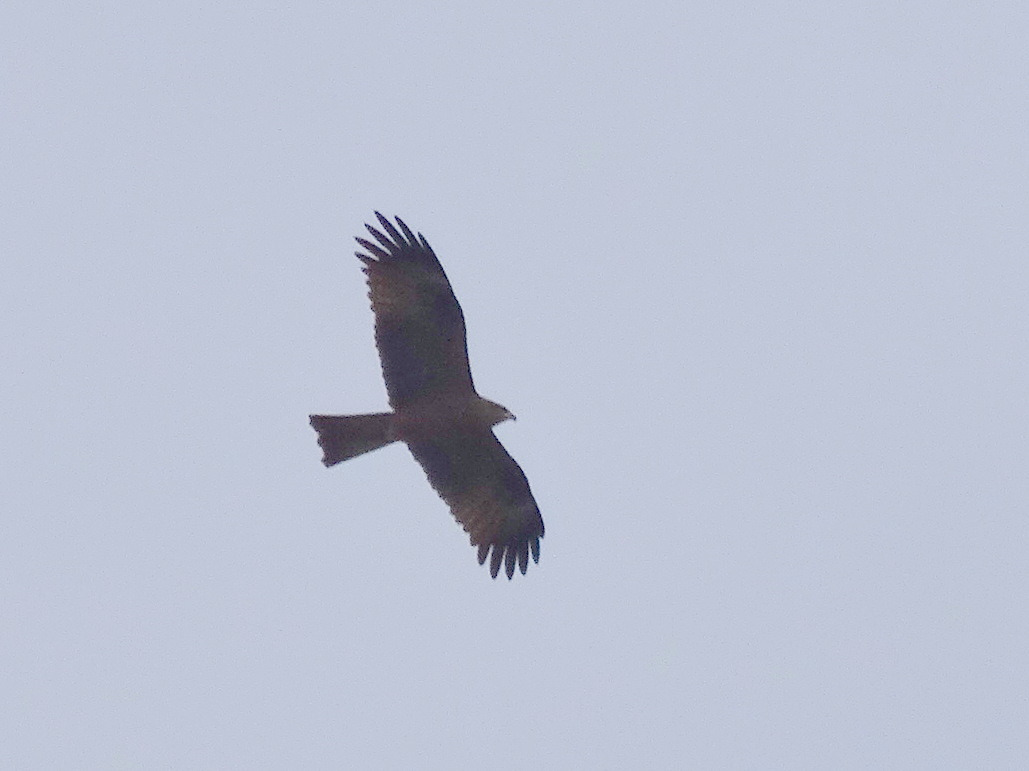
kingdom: Animalia
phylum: Chordata
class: Aves
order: Accipitriformes
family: Accipitridae
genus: Milvus
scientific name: Milvus migrans
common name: Black kite
